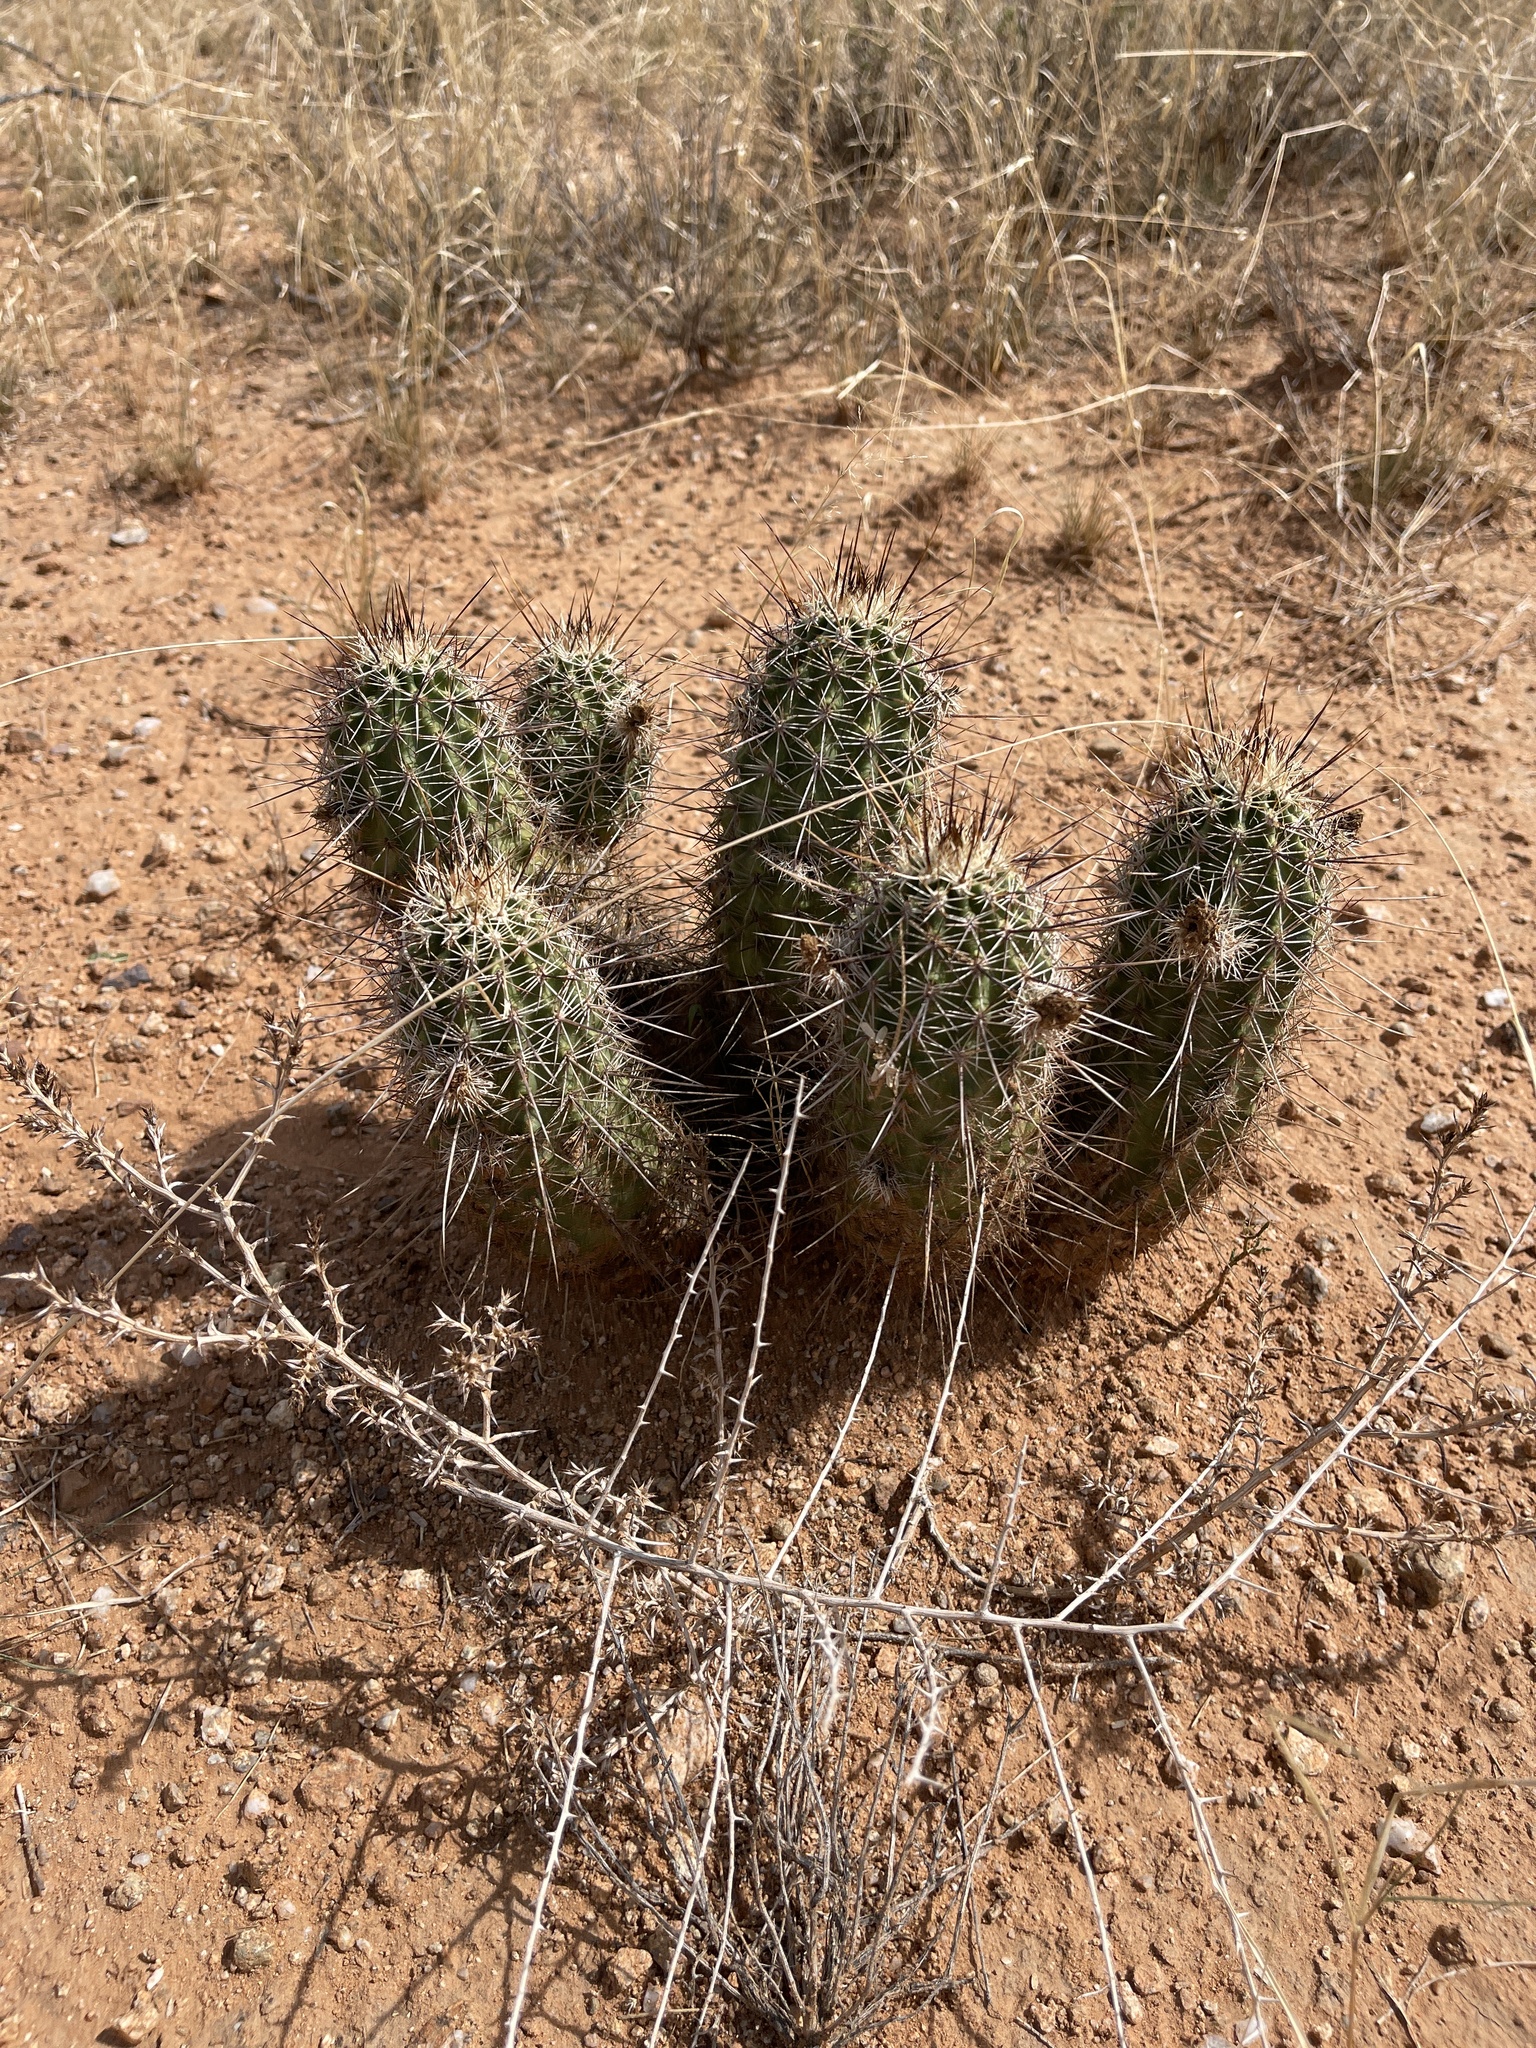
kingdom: Plantae
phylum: Tracheophyta
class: Magnoliopsida
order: Caryophyllales
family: Cactaceae
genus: Echinocereus
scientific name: Echinocereus fasciculatus
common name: Bundle hedgehog
